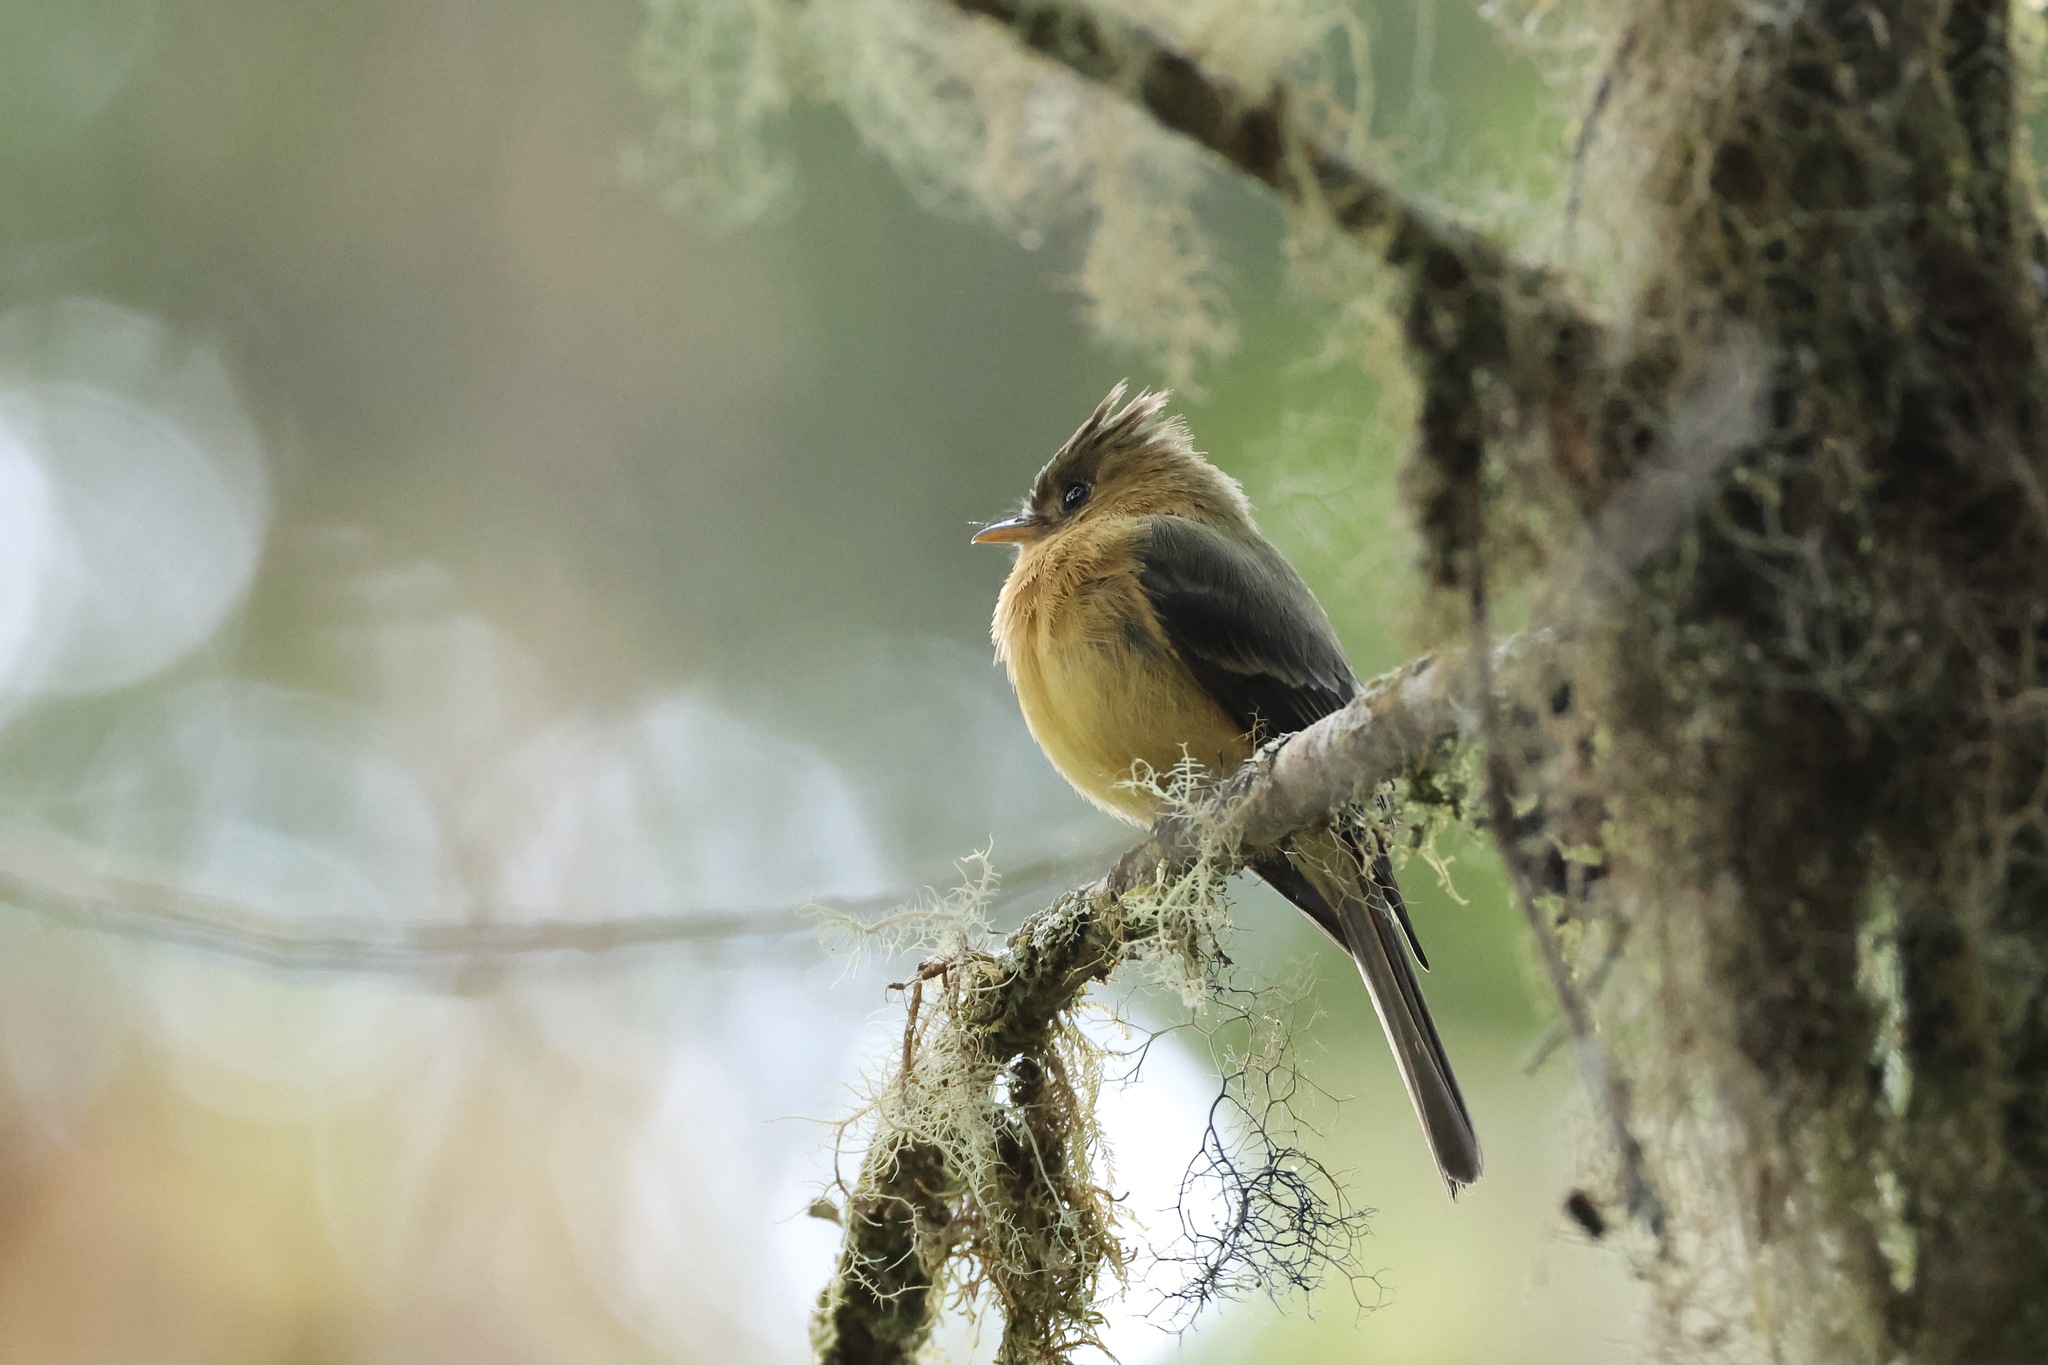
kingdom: Animalia
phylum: Chordata
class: Aves
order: Passeriformes
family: Tyrannidae
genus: Mitrephanes
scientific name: Mitrephanes phaeocercus
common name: Northern tufted flycatcher
